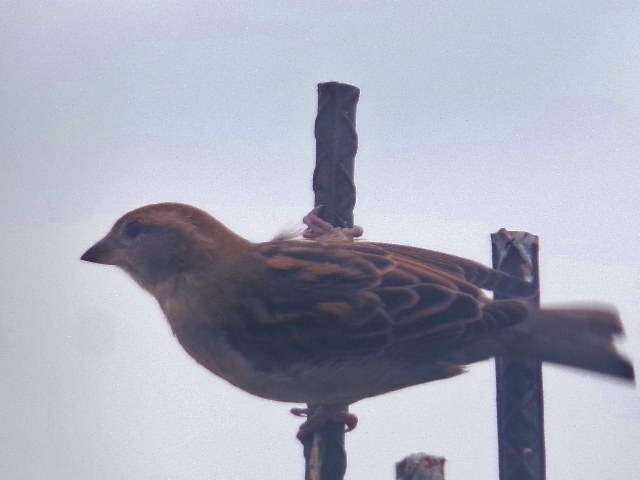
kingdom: Animalia
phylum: Chordata
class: Aves
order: Passeriformes
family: Passeridae
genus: Passer
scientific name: Passer domesticus
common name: House sparrow
